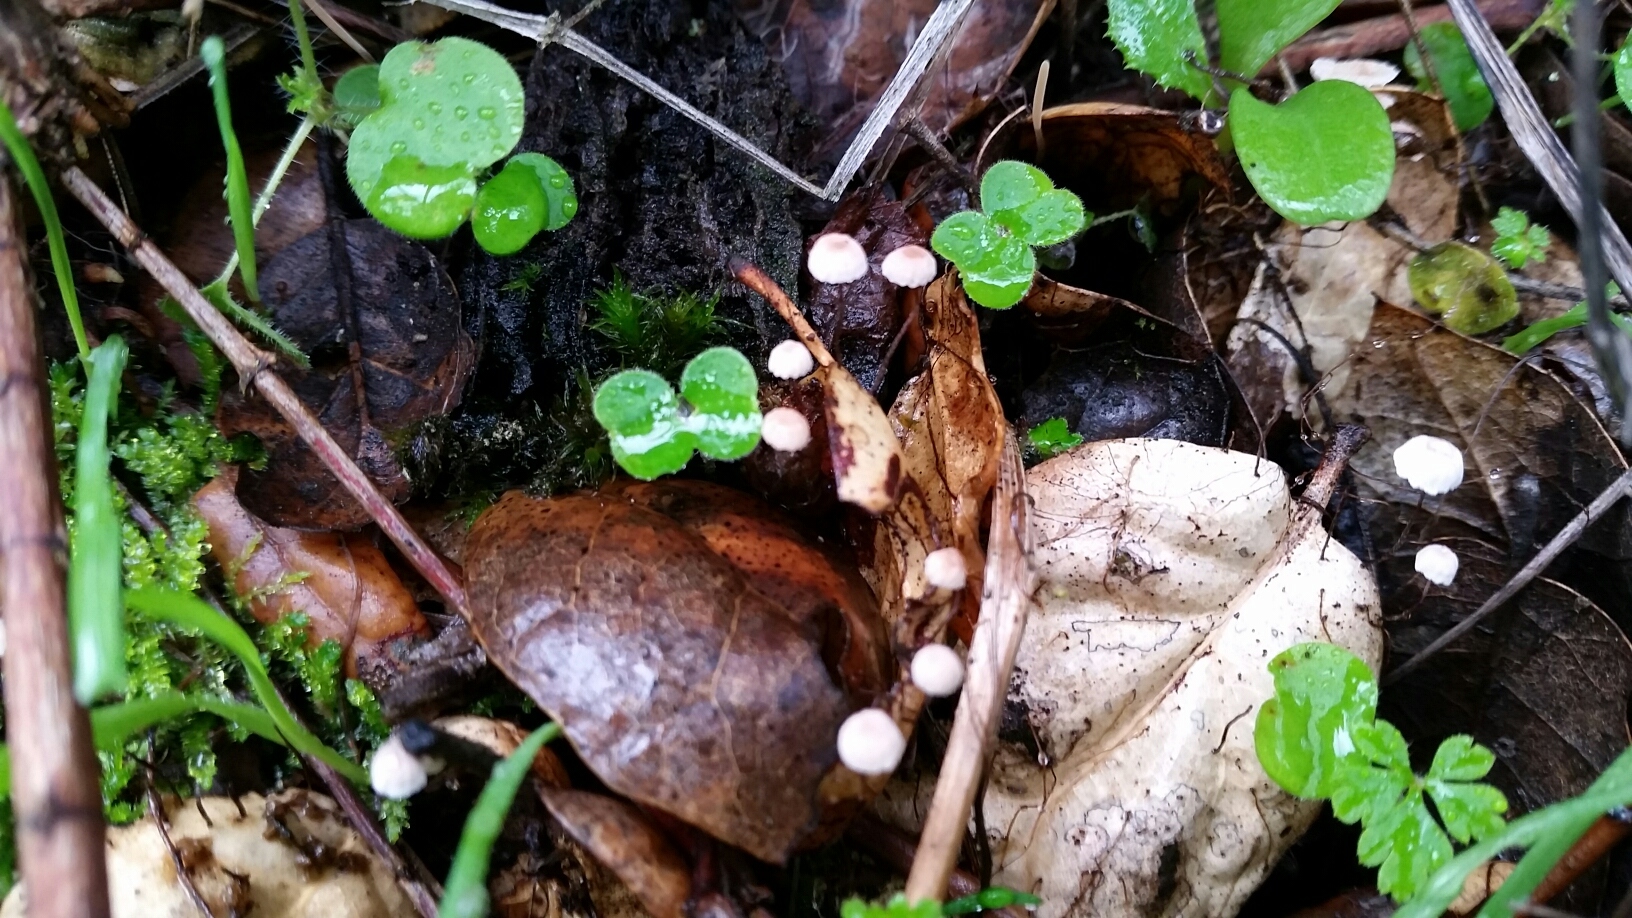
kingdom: Fungi
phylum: Basidiomycota
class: Agaricomycetes
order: Agaricales
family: Omphalotaceae
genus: Collybiopsis
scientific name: Collybiopsis quercophila
